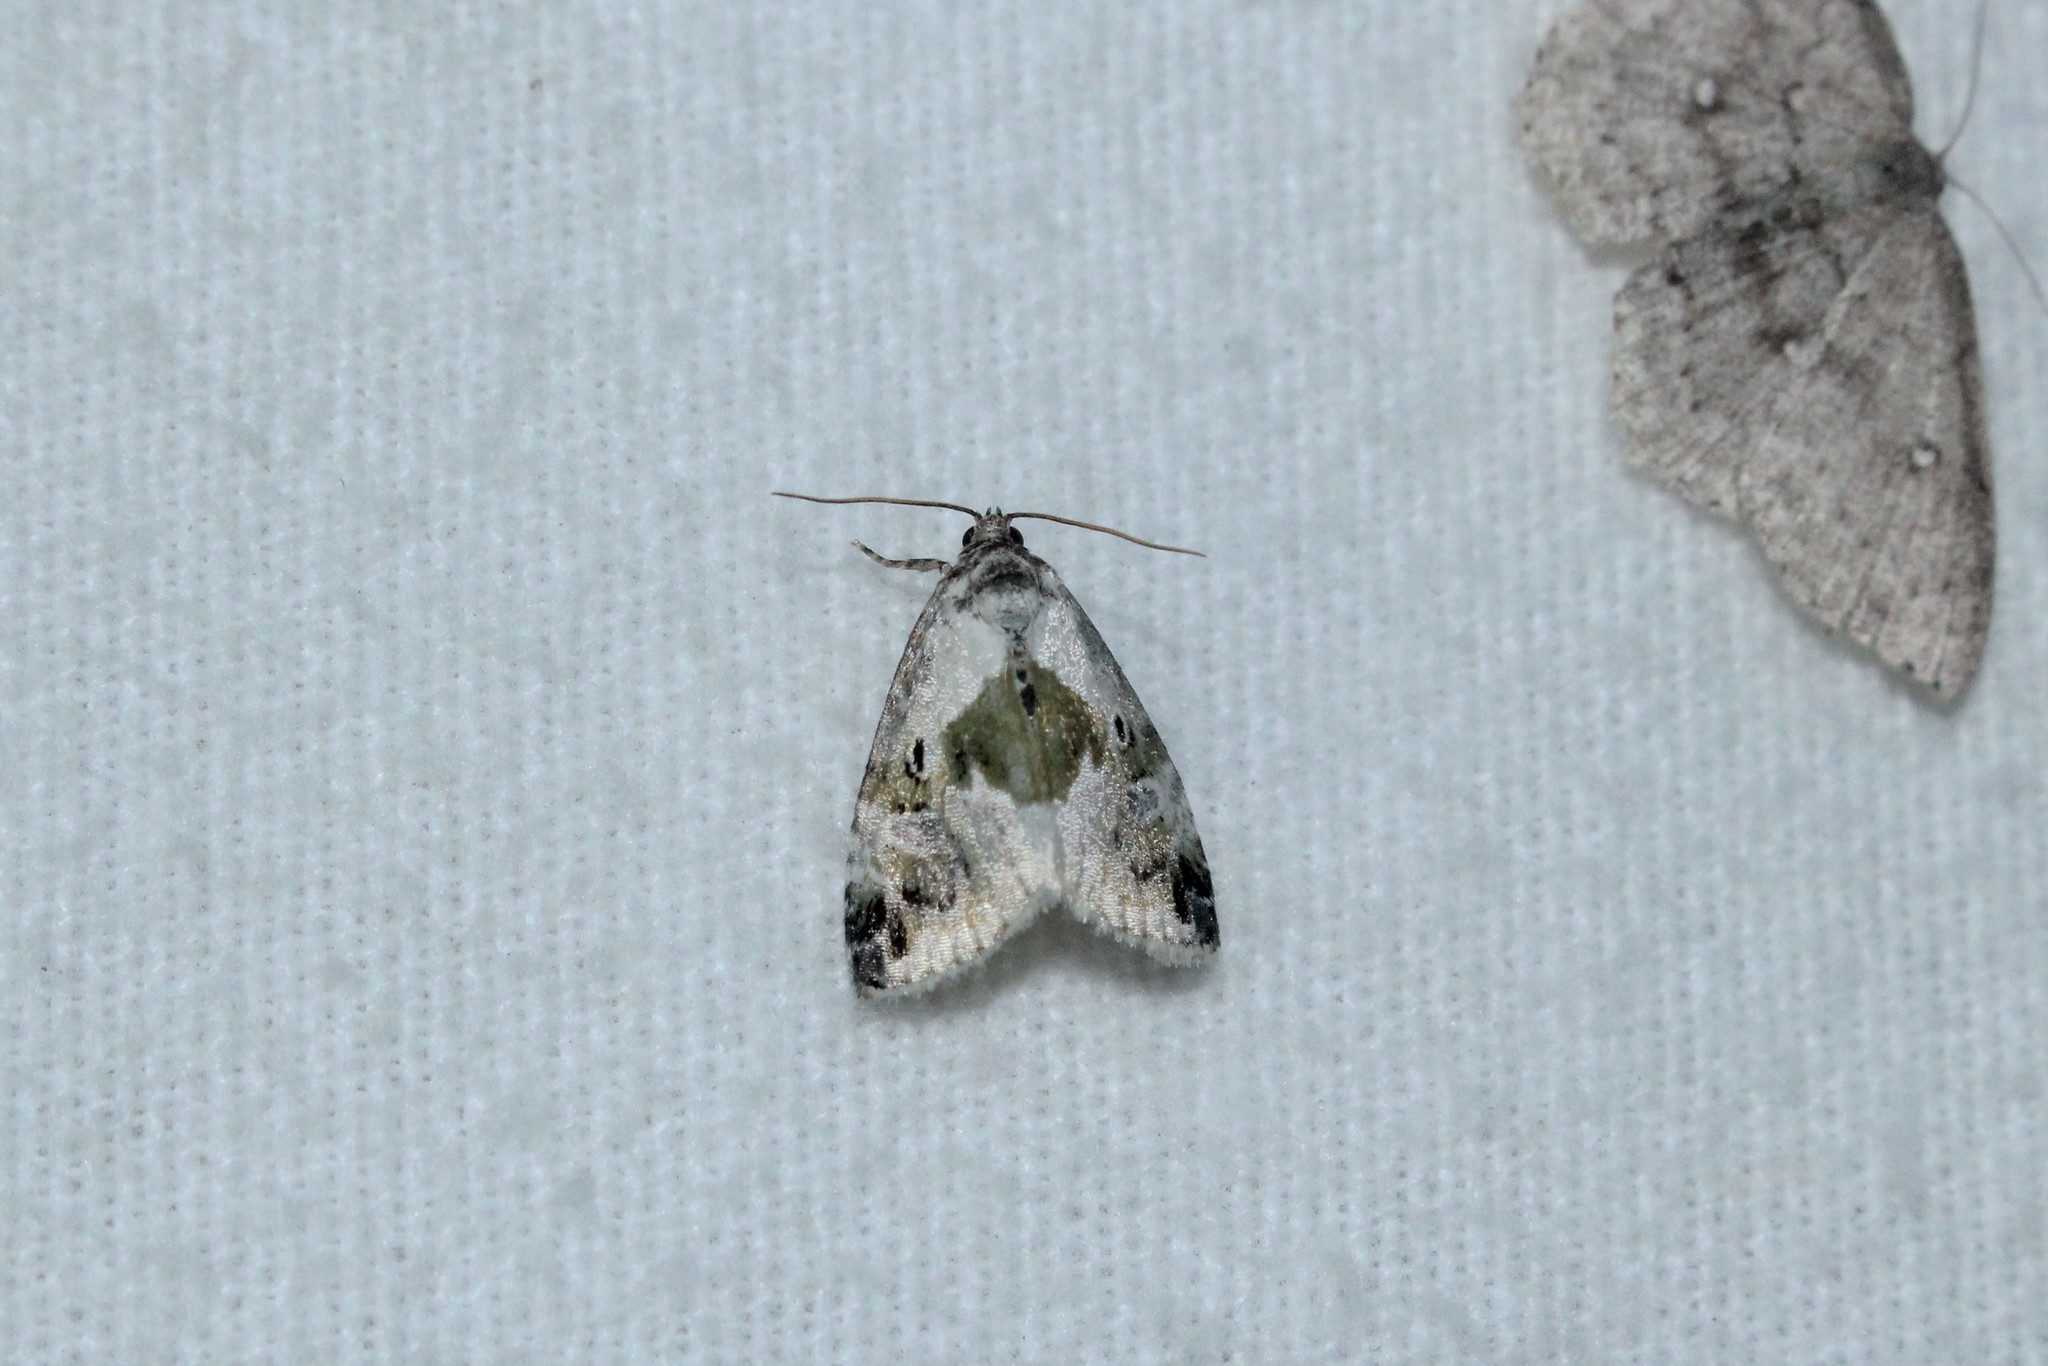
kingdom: Animalia
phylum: Arthropoda
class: Insecta
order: Lepidoptera
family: Noctuidae
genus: Maliattha
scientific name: Maliattha synochitis
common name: Black-dotted glyph
